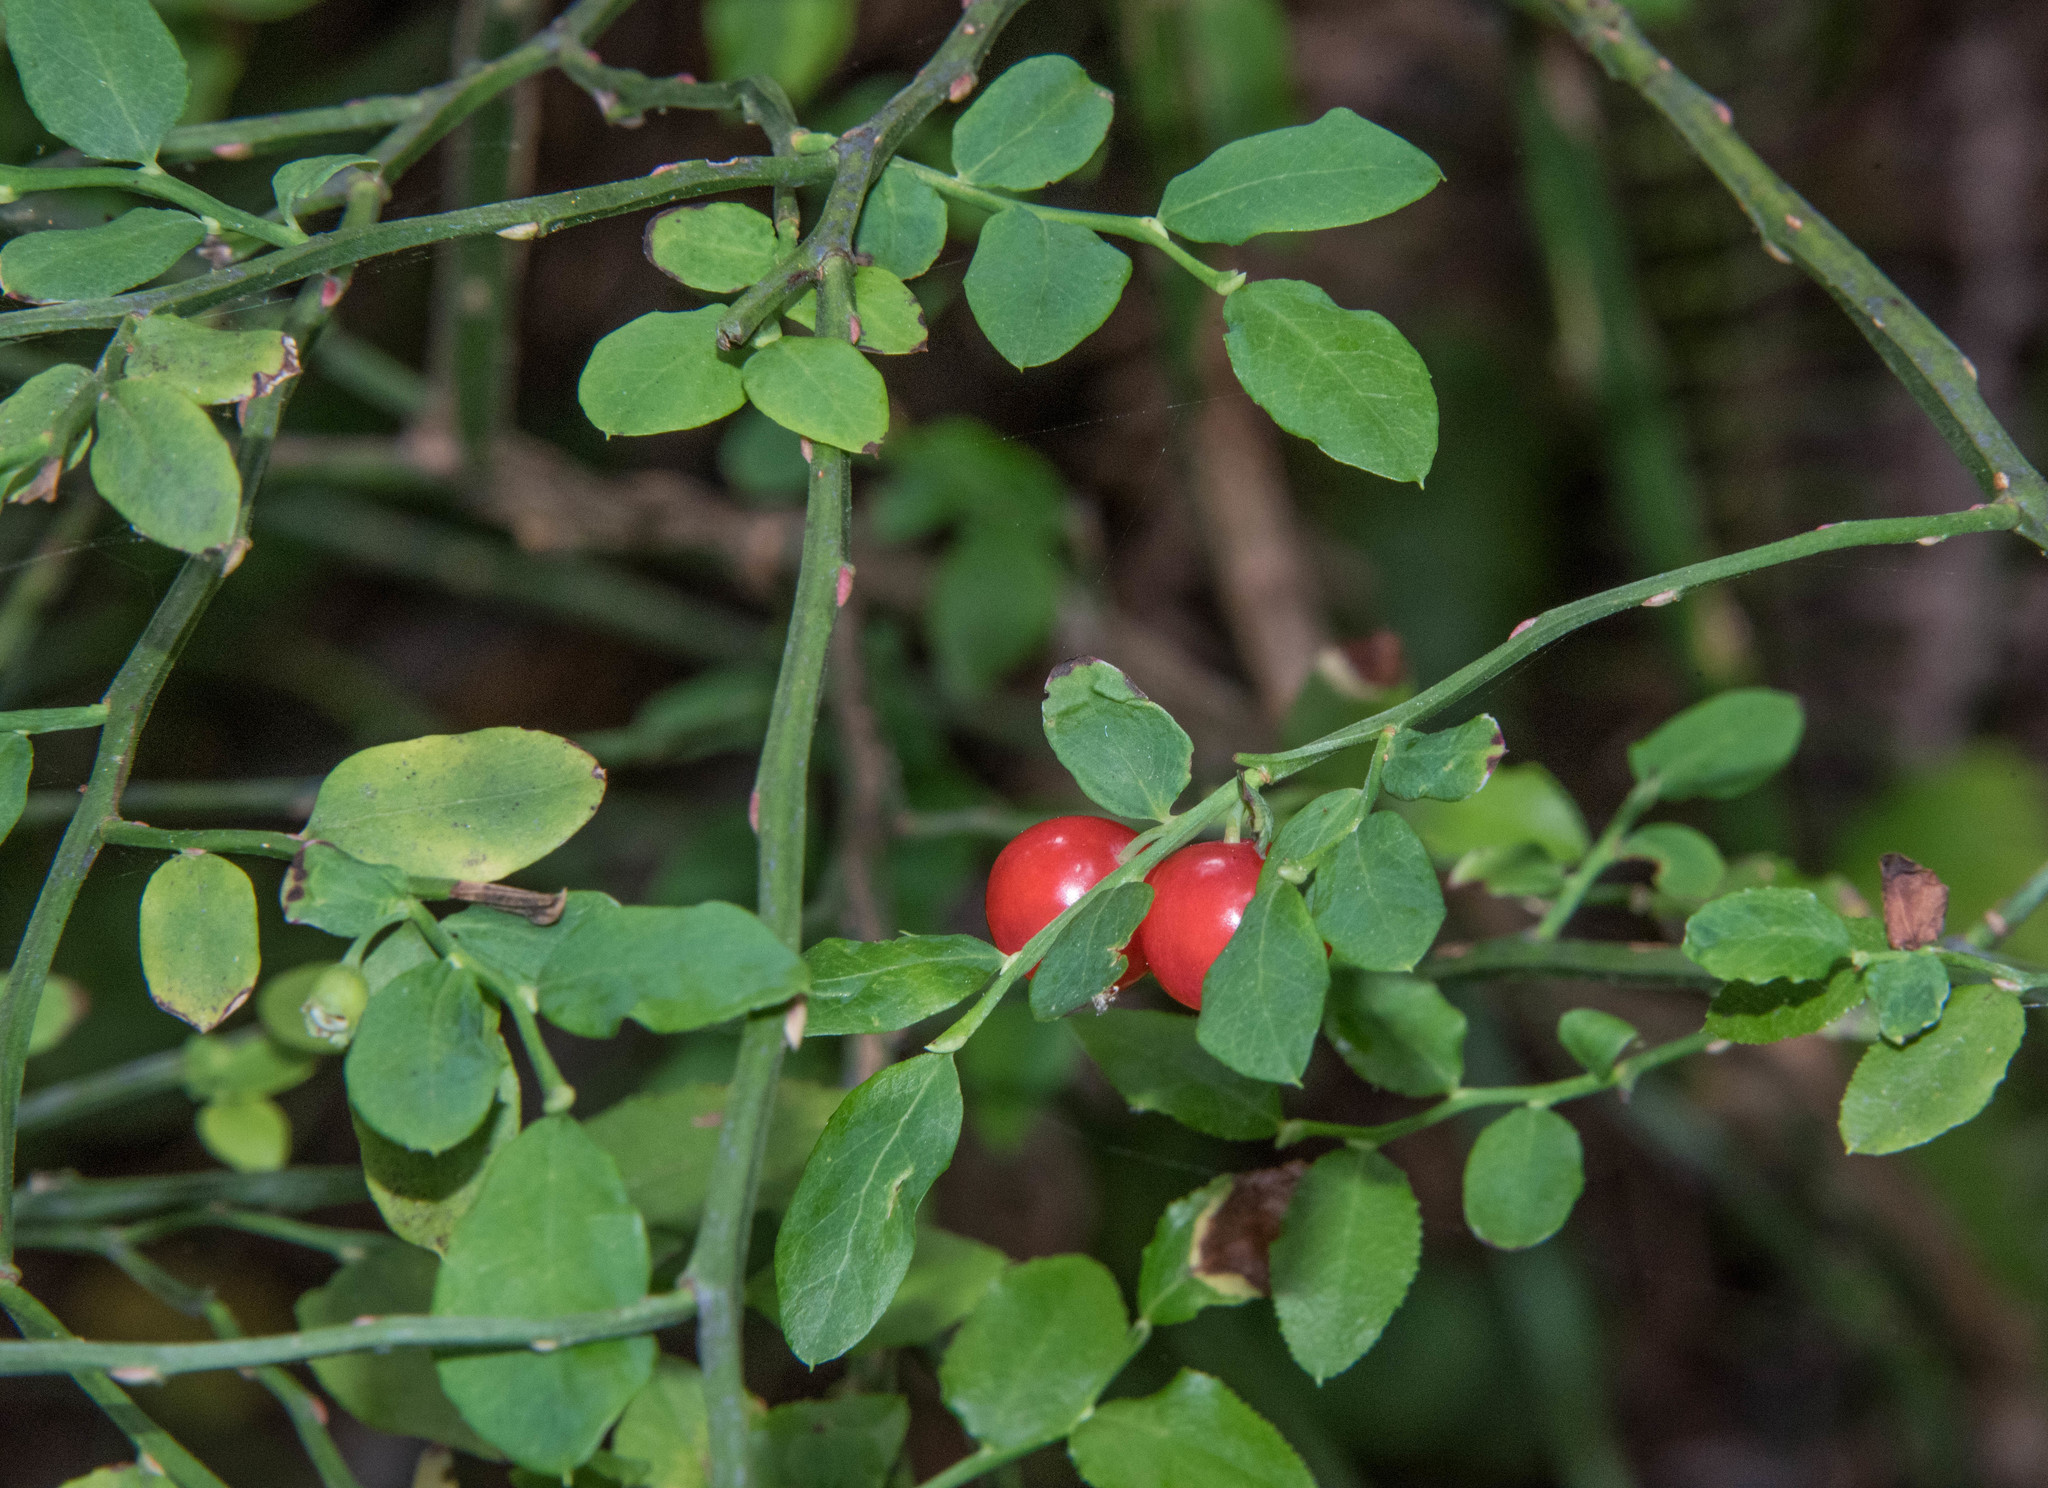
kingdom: Plantae
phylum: Tracheophyta
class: Magnoliopsida
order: Ericales
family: Ericaceae
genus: Vaccinium
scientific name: Vaccinium parvifolium
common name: Red-huckleberry
